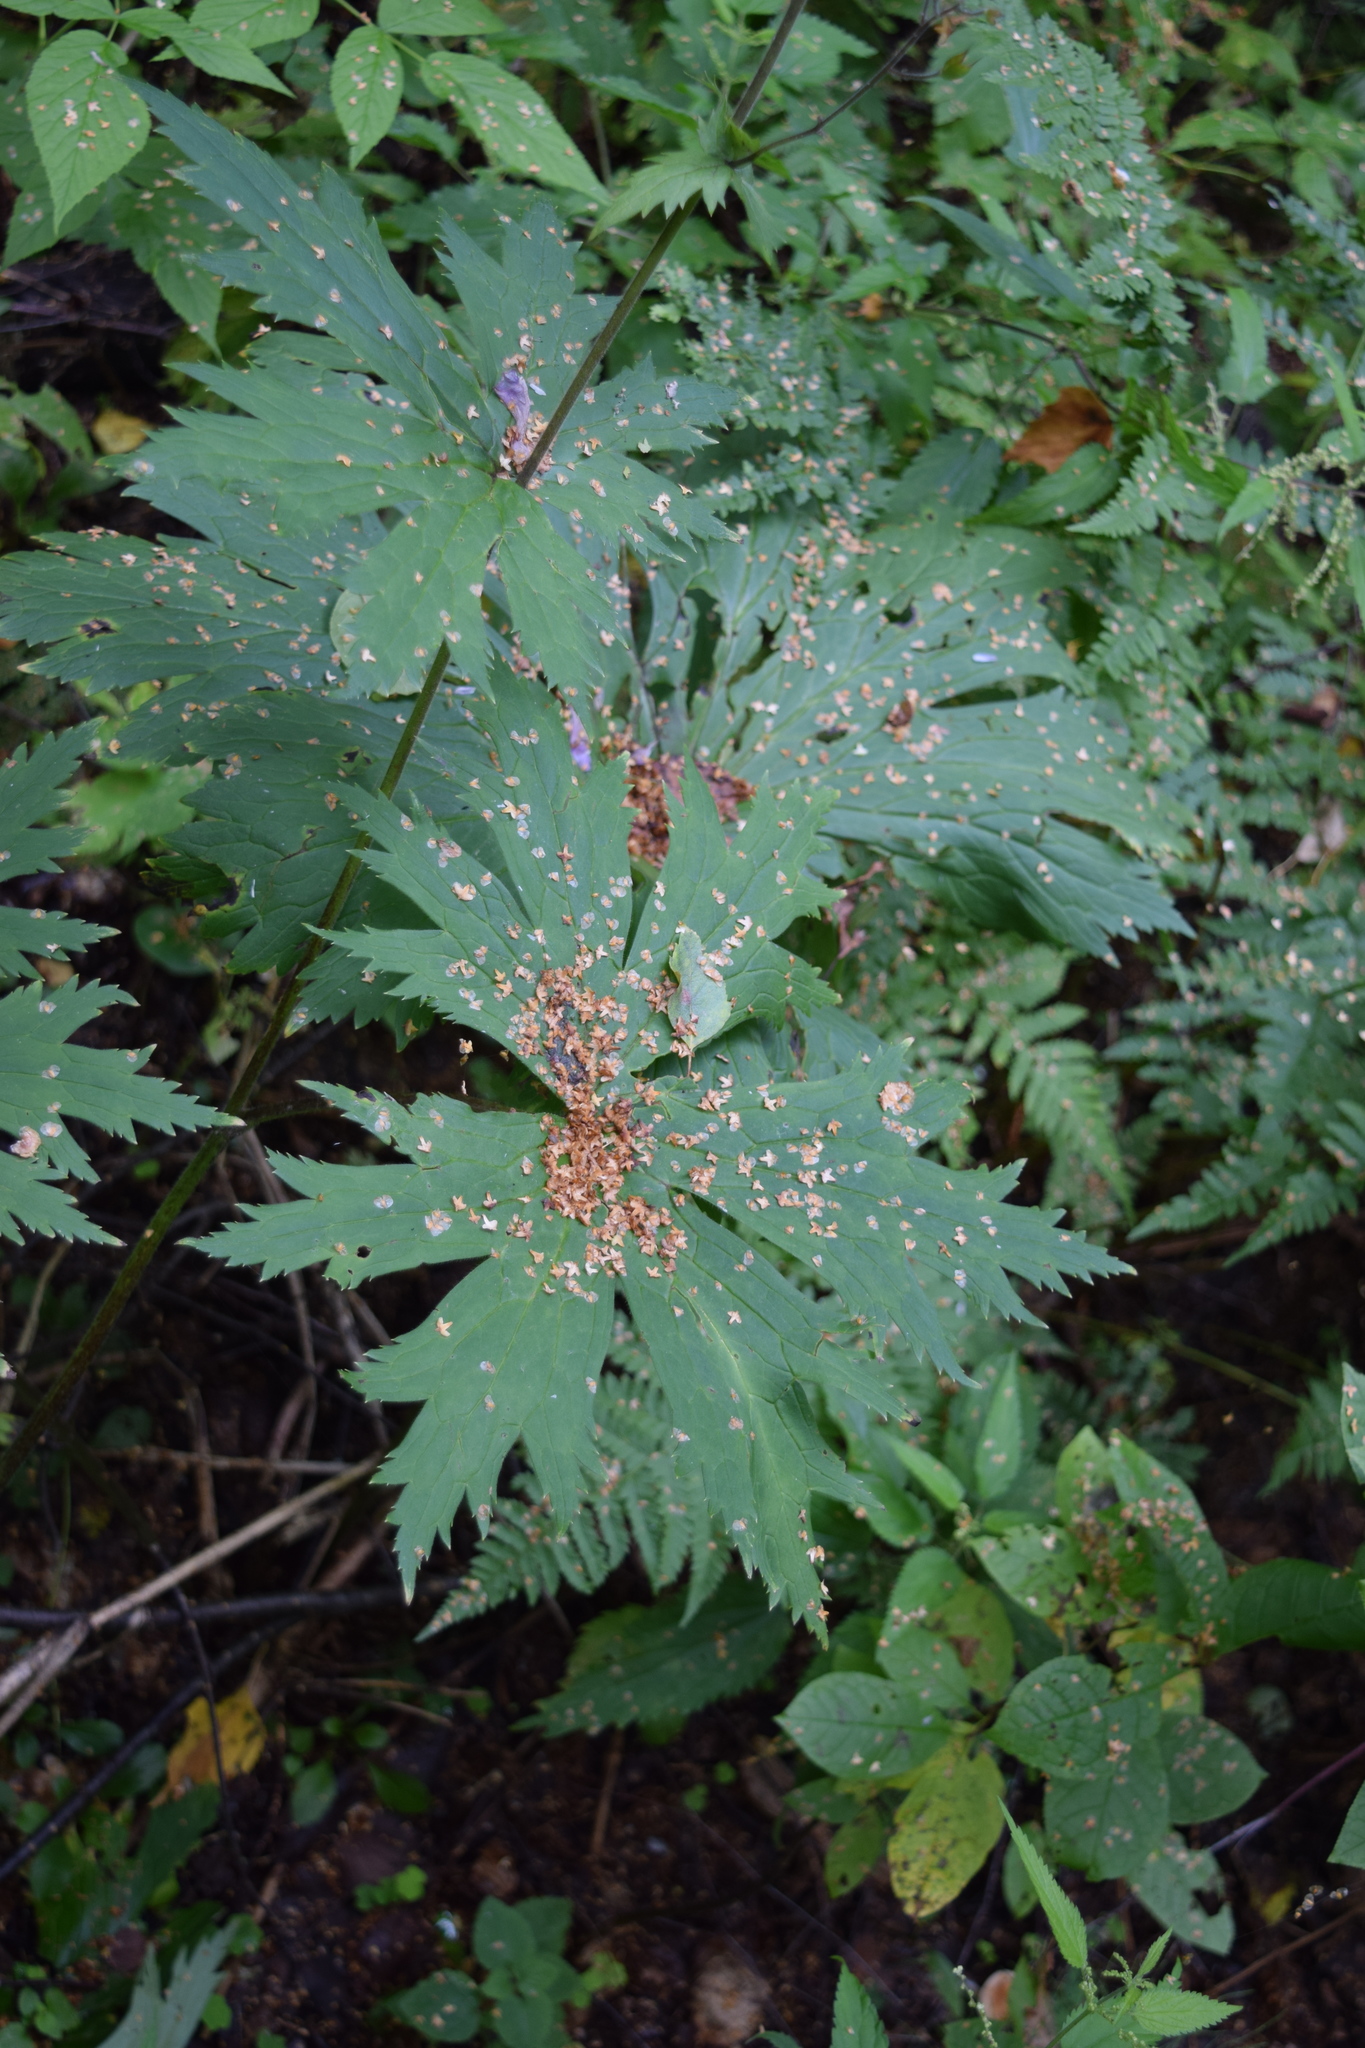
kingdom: Plantae
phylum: Tracheophyta
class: Magnoliopsida
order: Ranunculales
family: Ranunculaceae
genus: Aconitum
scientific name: Aconitum septentrionale
